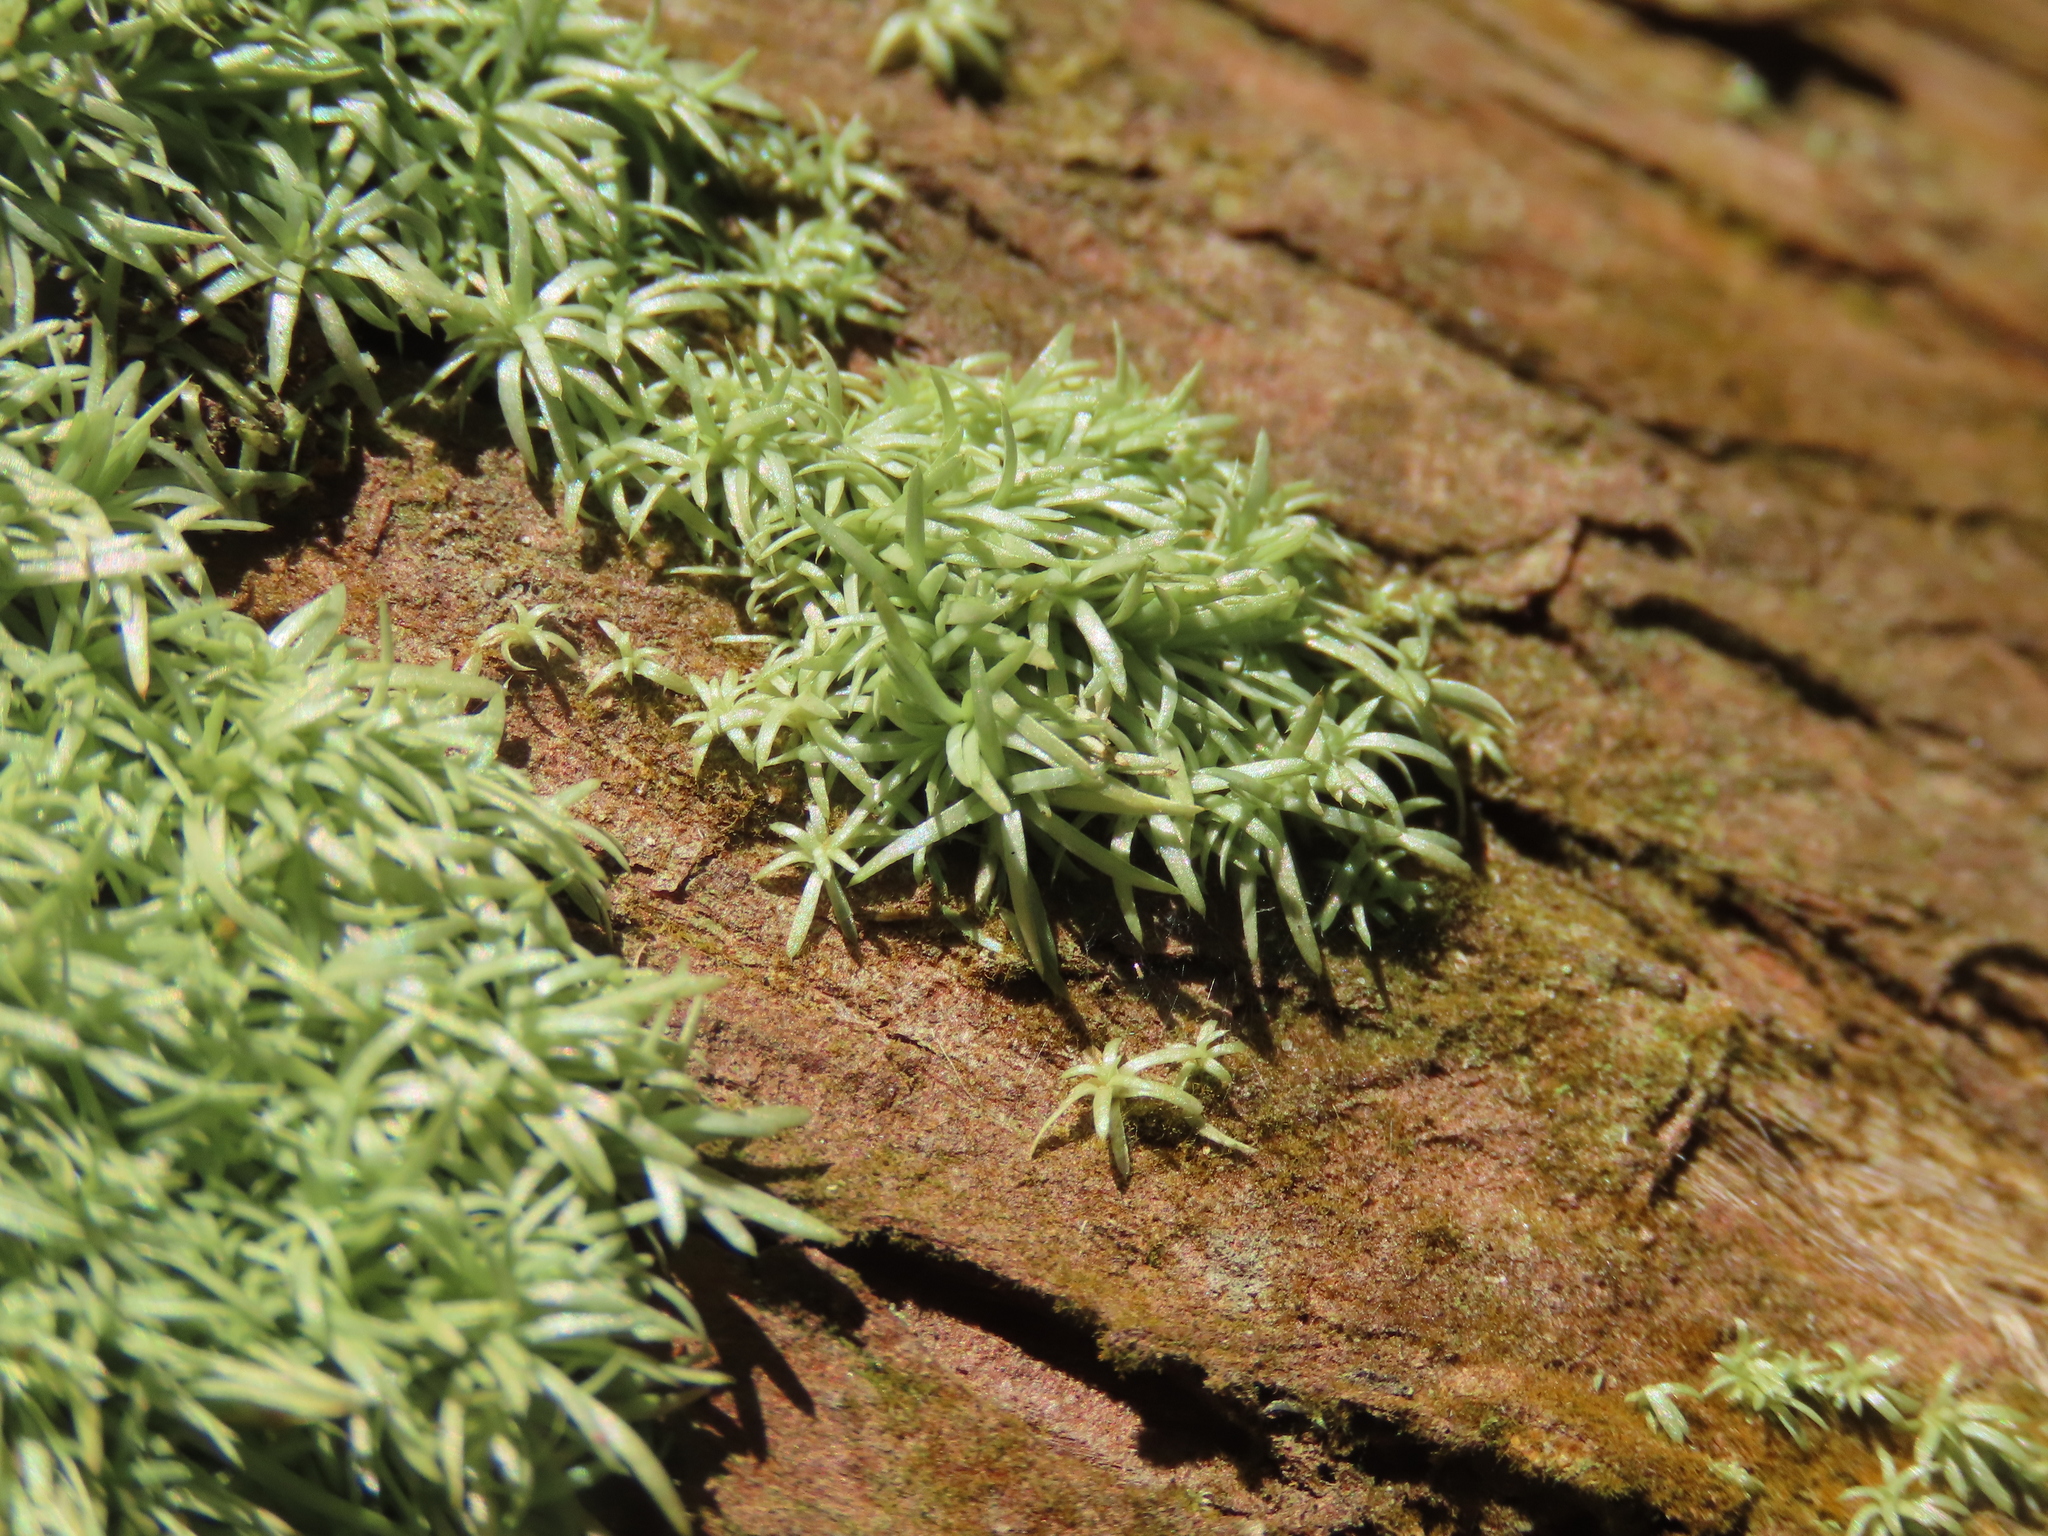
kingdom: Plantae
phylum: Bryophyta
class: Bryopsida
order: Dicranales
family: Octoblepharaceae
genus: Octoblepharum
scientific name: Octoblepharum albidum
